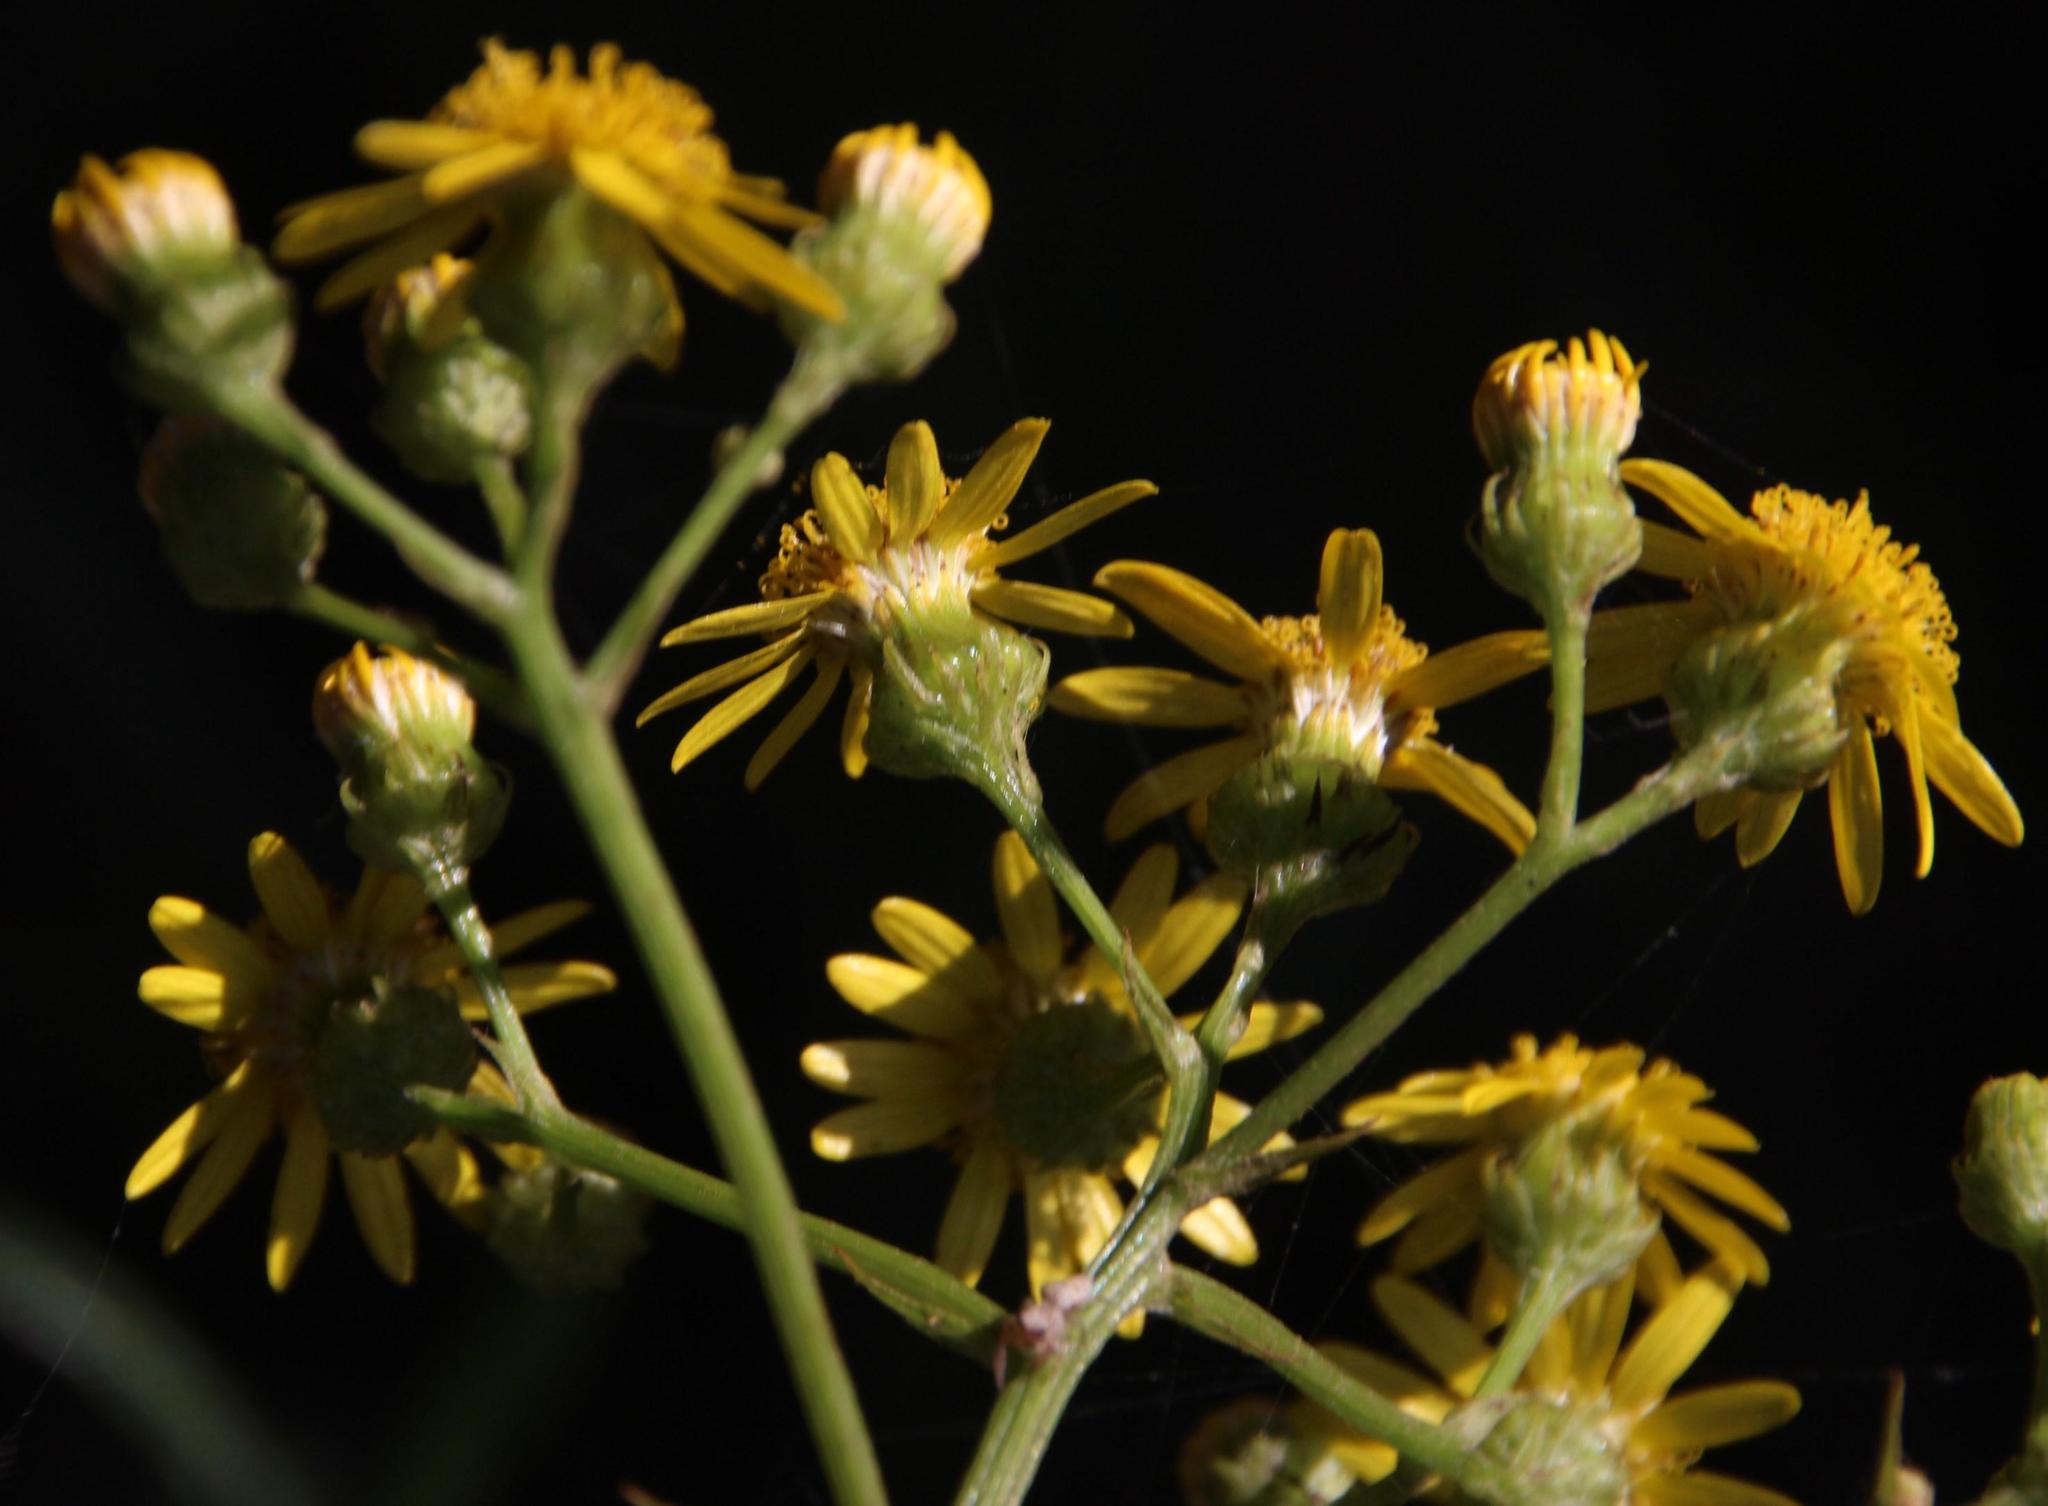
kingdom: Plantae
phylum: Tracheophyta
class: Magnoliopsida
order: Asterales
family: Asteraceae
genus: Senecio
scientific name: Senecio pterophorus
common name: Shoddy ragwort
